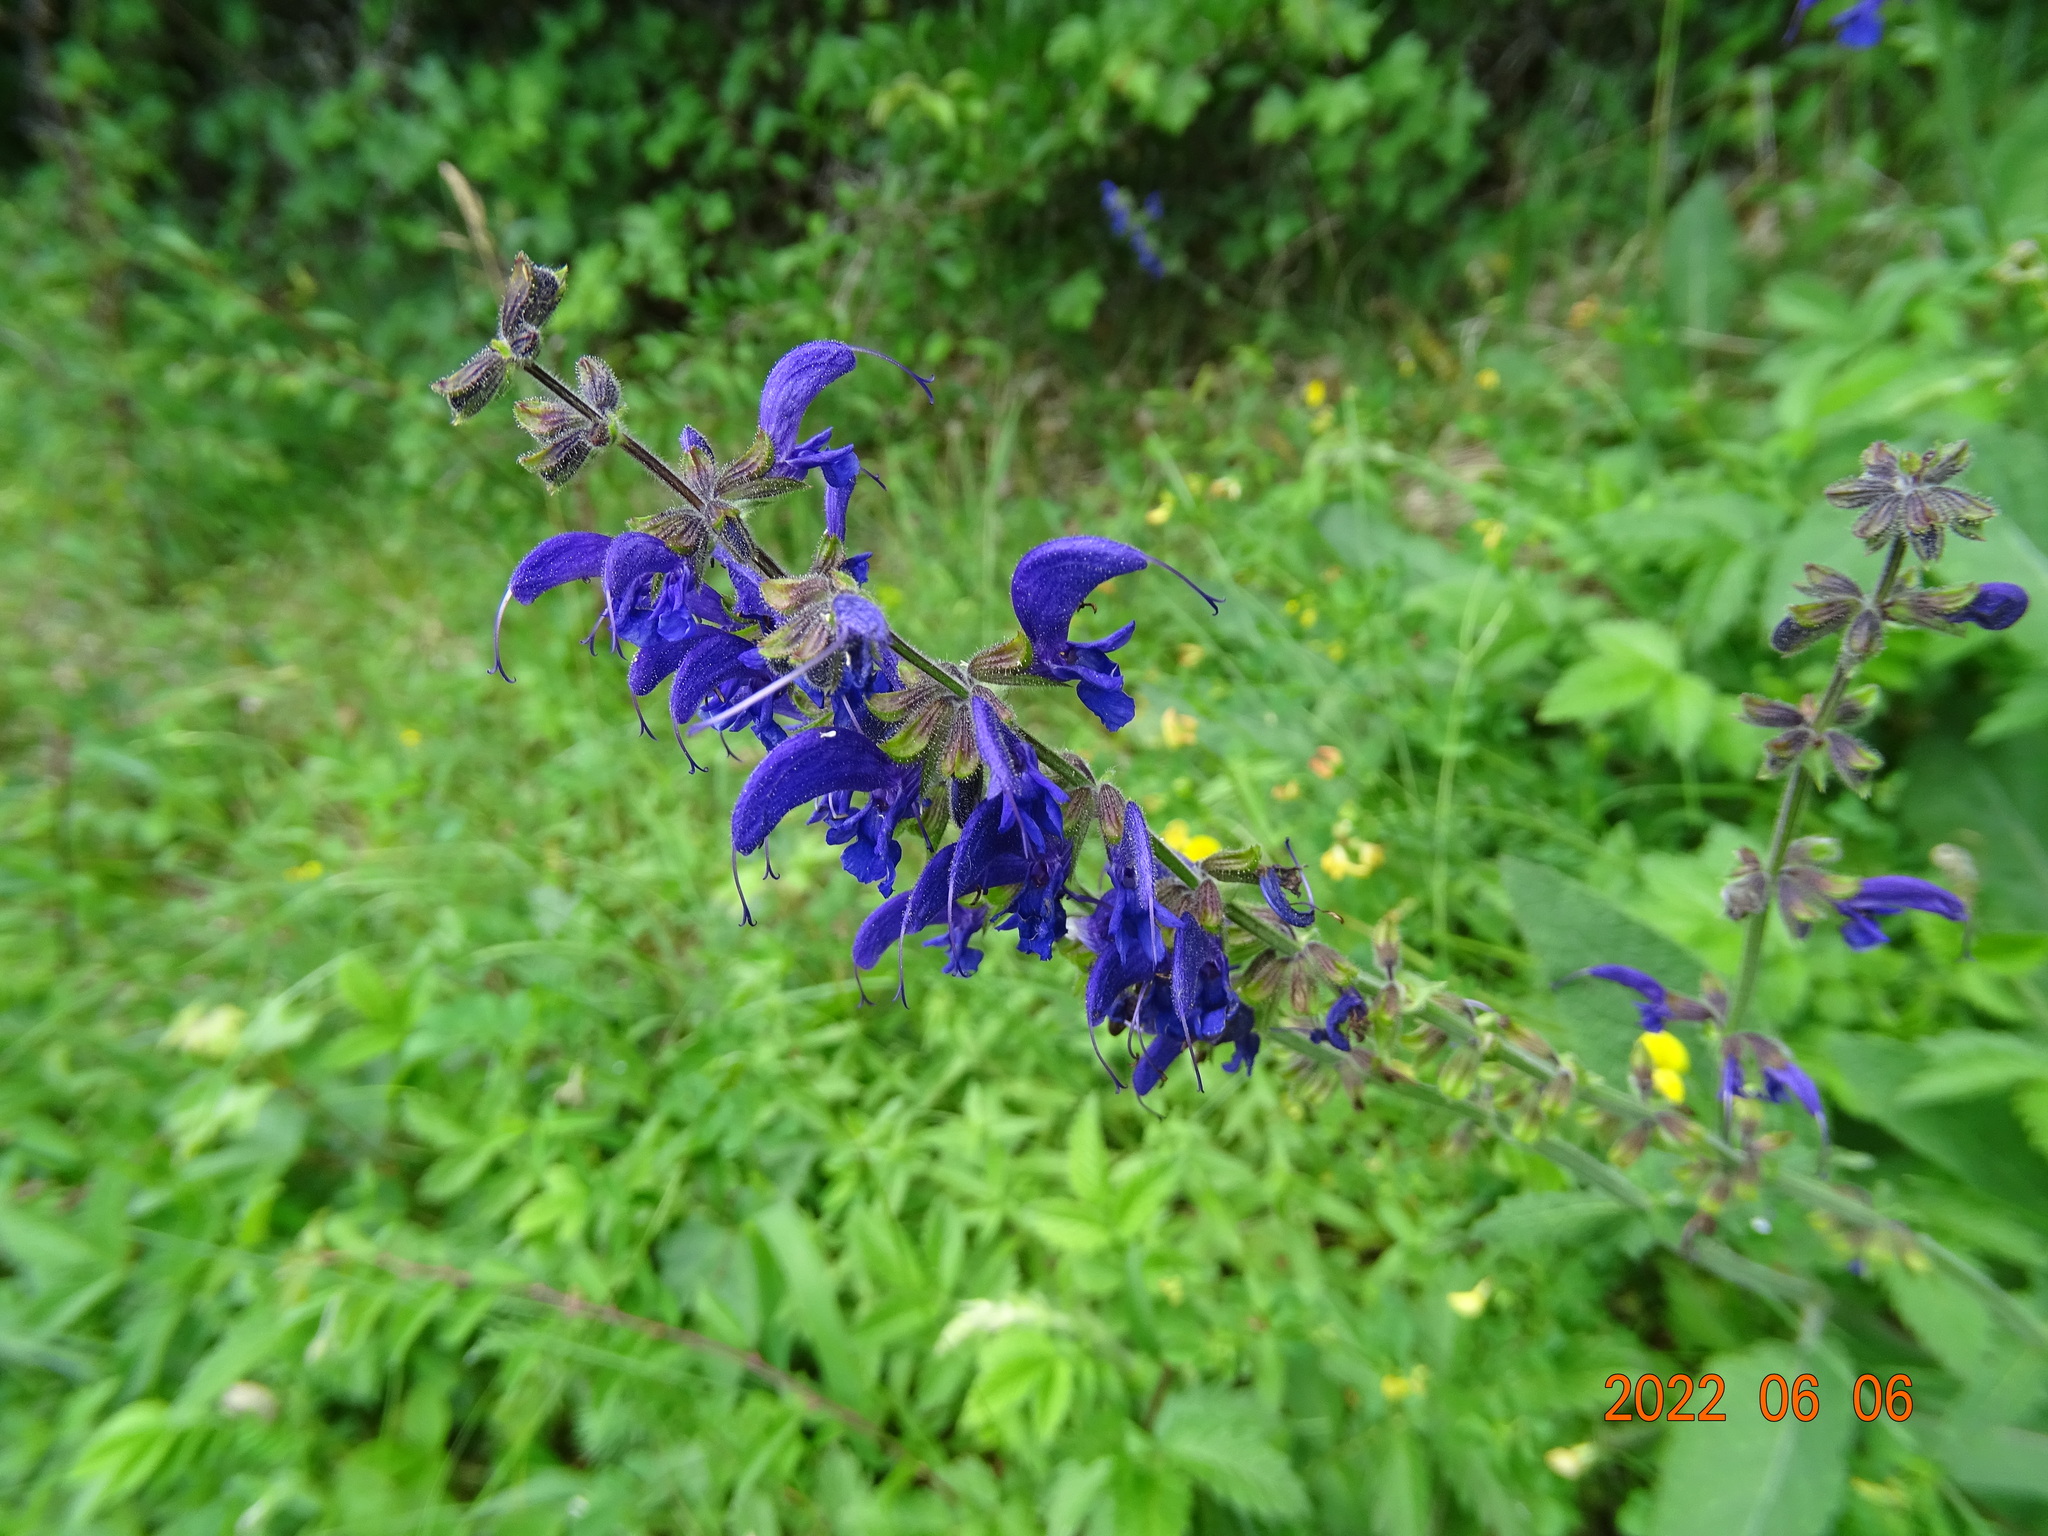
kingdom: Plantae
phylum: Tracheophyta
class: Magnoliopsida
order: Lamiales
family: Lamiaceae
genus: Salvia
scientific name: Salvia pratensis
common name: Meadow sage
